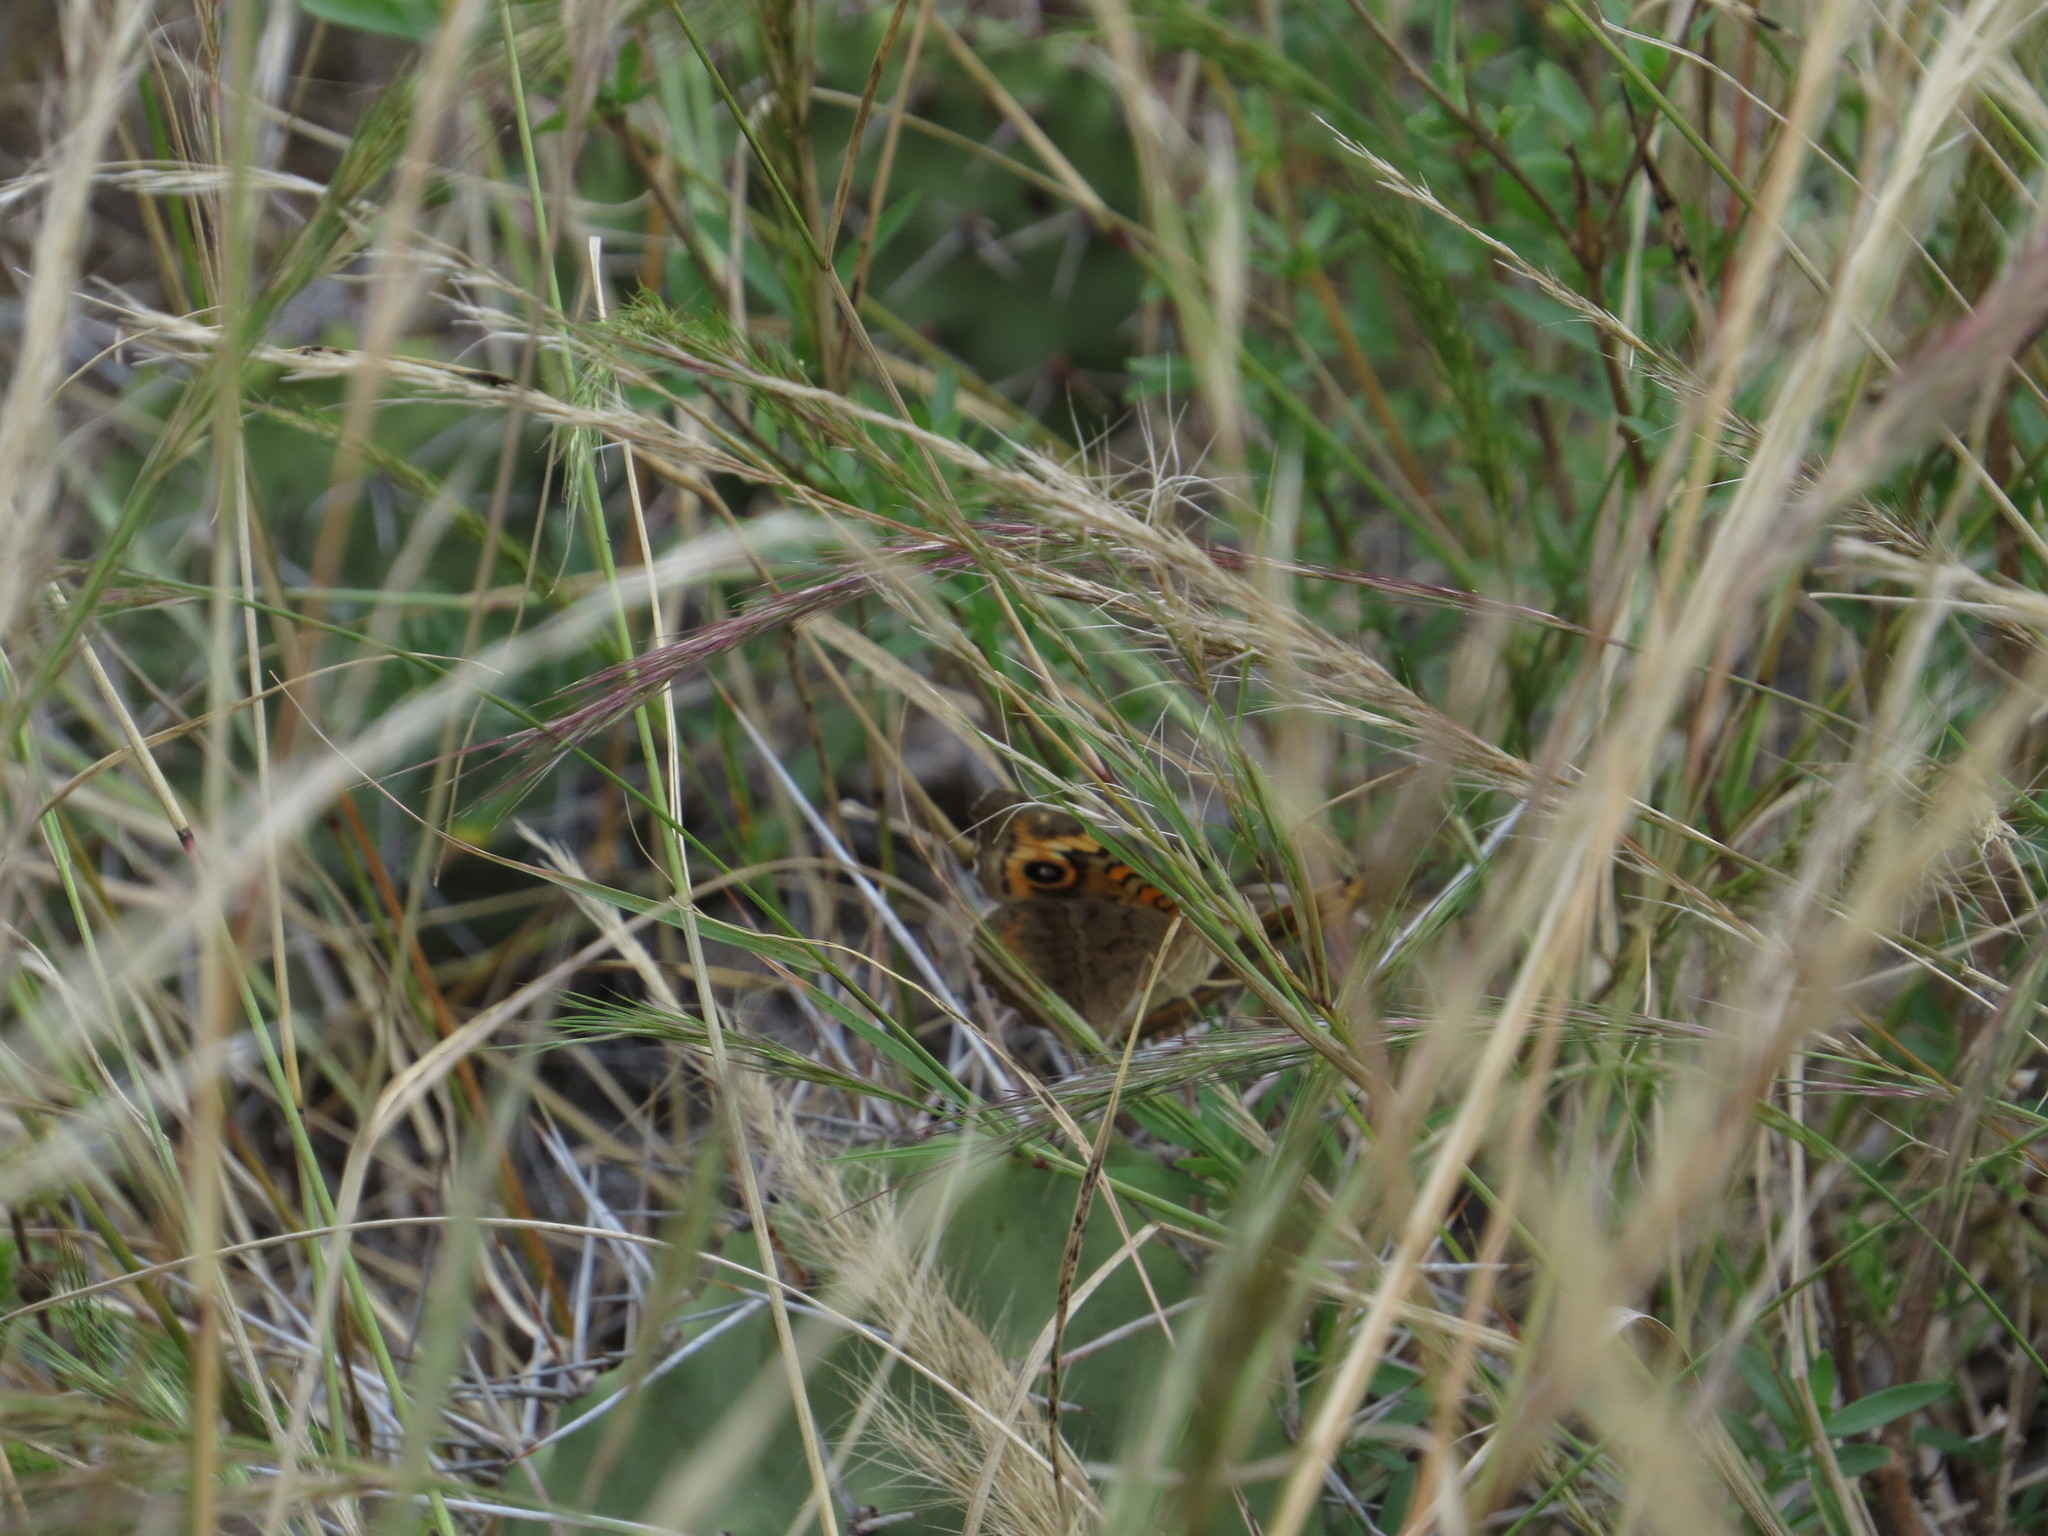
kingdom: Animalia
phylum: Arthropoda
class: Insecta
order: Lepidoptera
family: Nymphalidae
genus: Junonia
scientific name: Junonia lavinia
